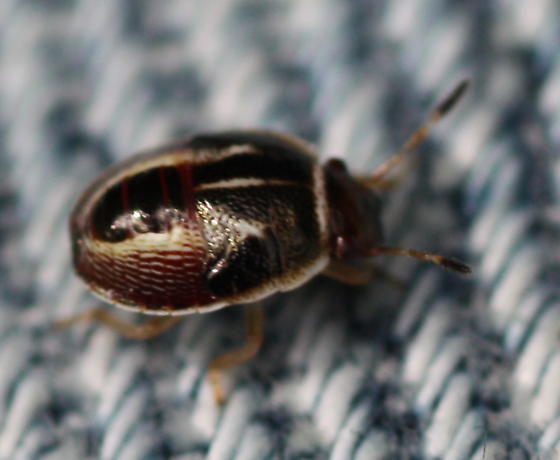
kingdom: Animalia
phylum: Arthropoda
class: Insecta
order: Hemiptera
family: Pentatomidae
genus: Mormidea
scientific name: Mormidea lugens
